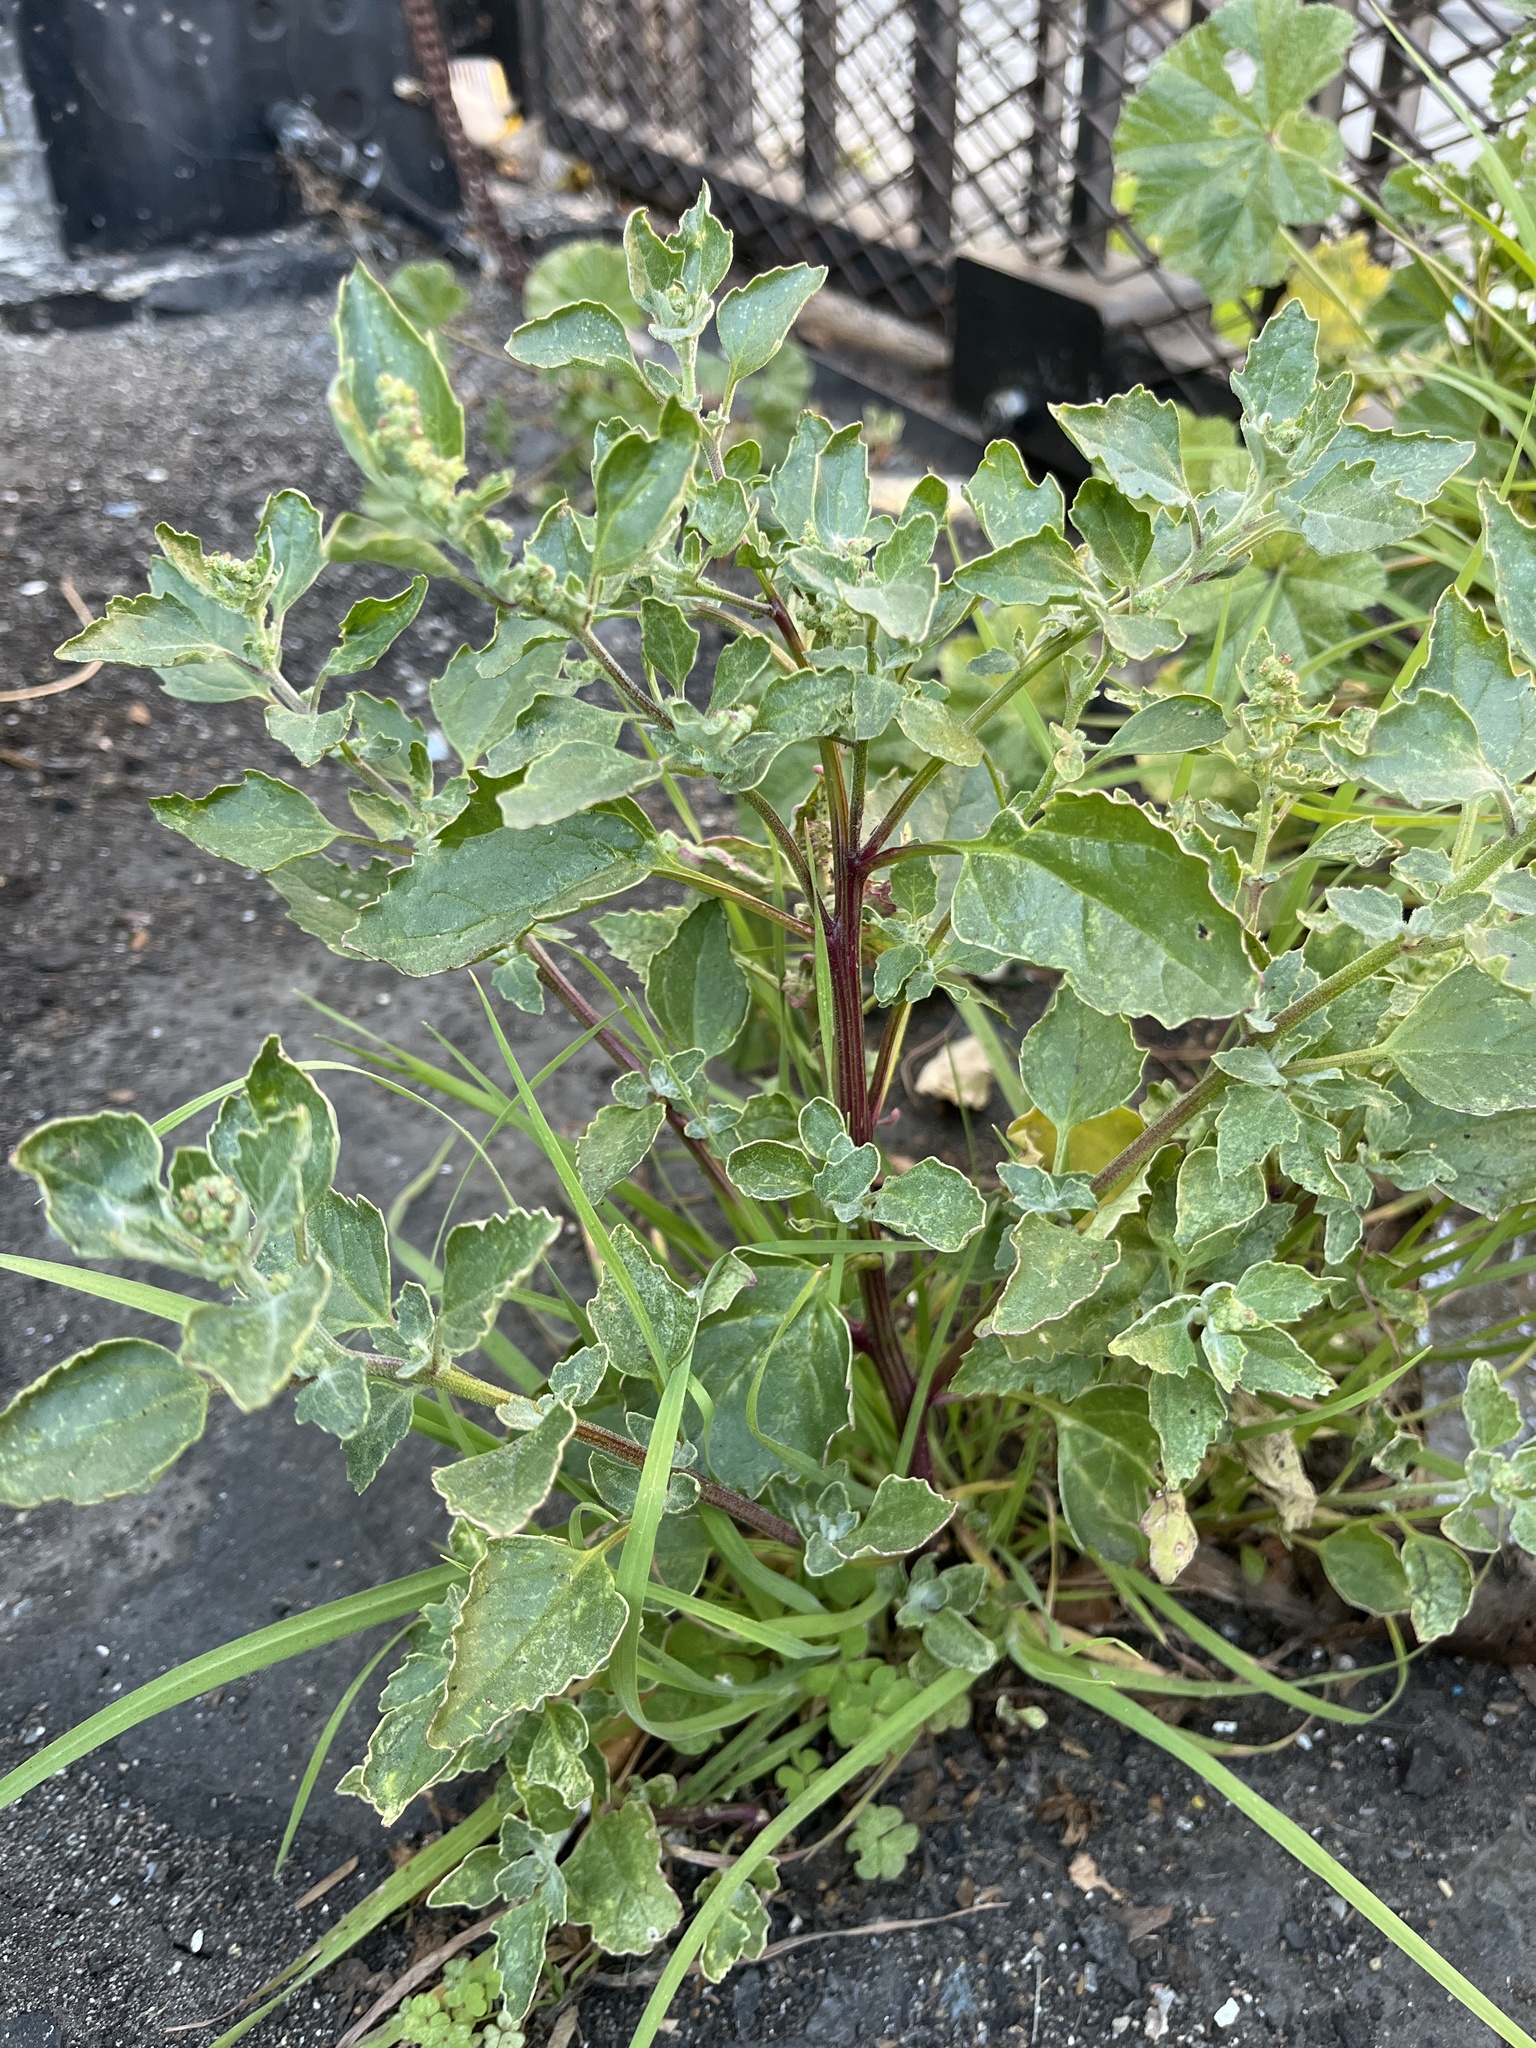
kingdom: Plantae
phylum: Tracheophyta
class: Magnoliopsida
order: Caryophyllales
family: Amaranthaceae
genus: Chenopodiastrum
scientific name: Chenopodiastrum murale
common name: Sowbane
